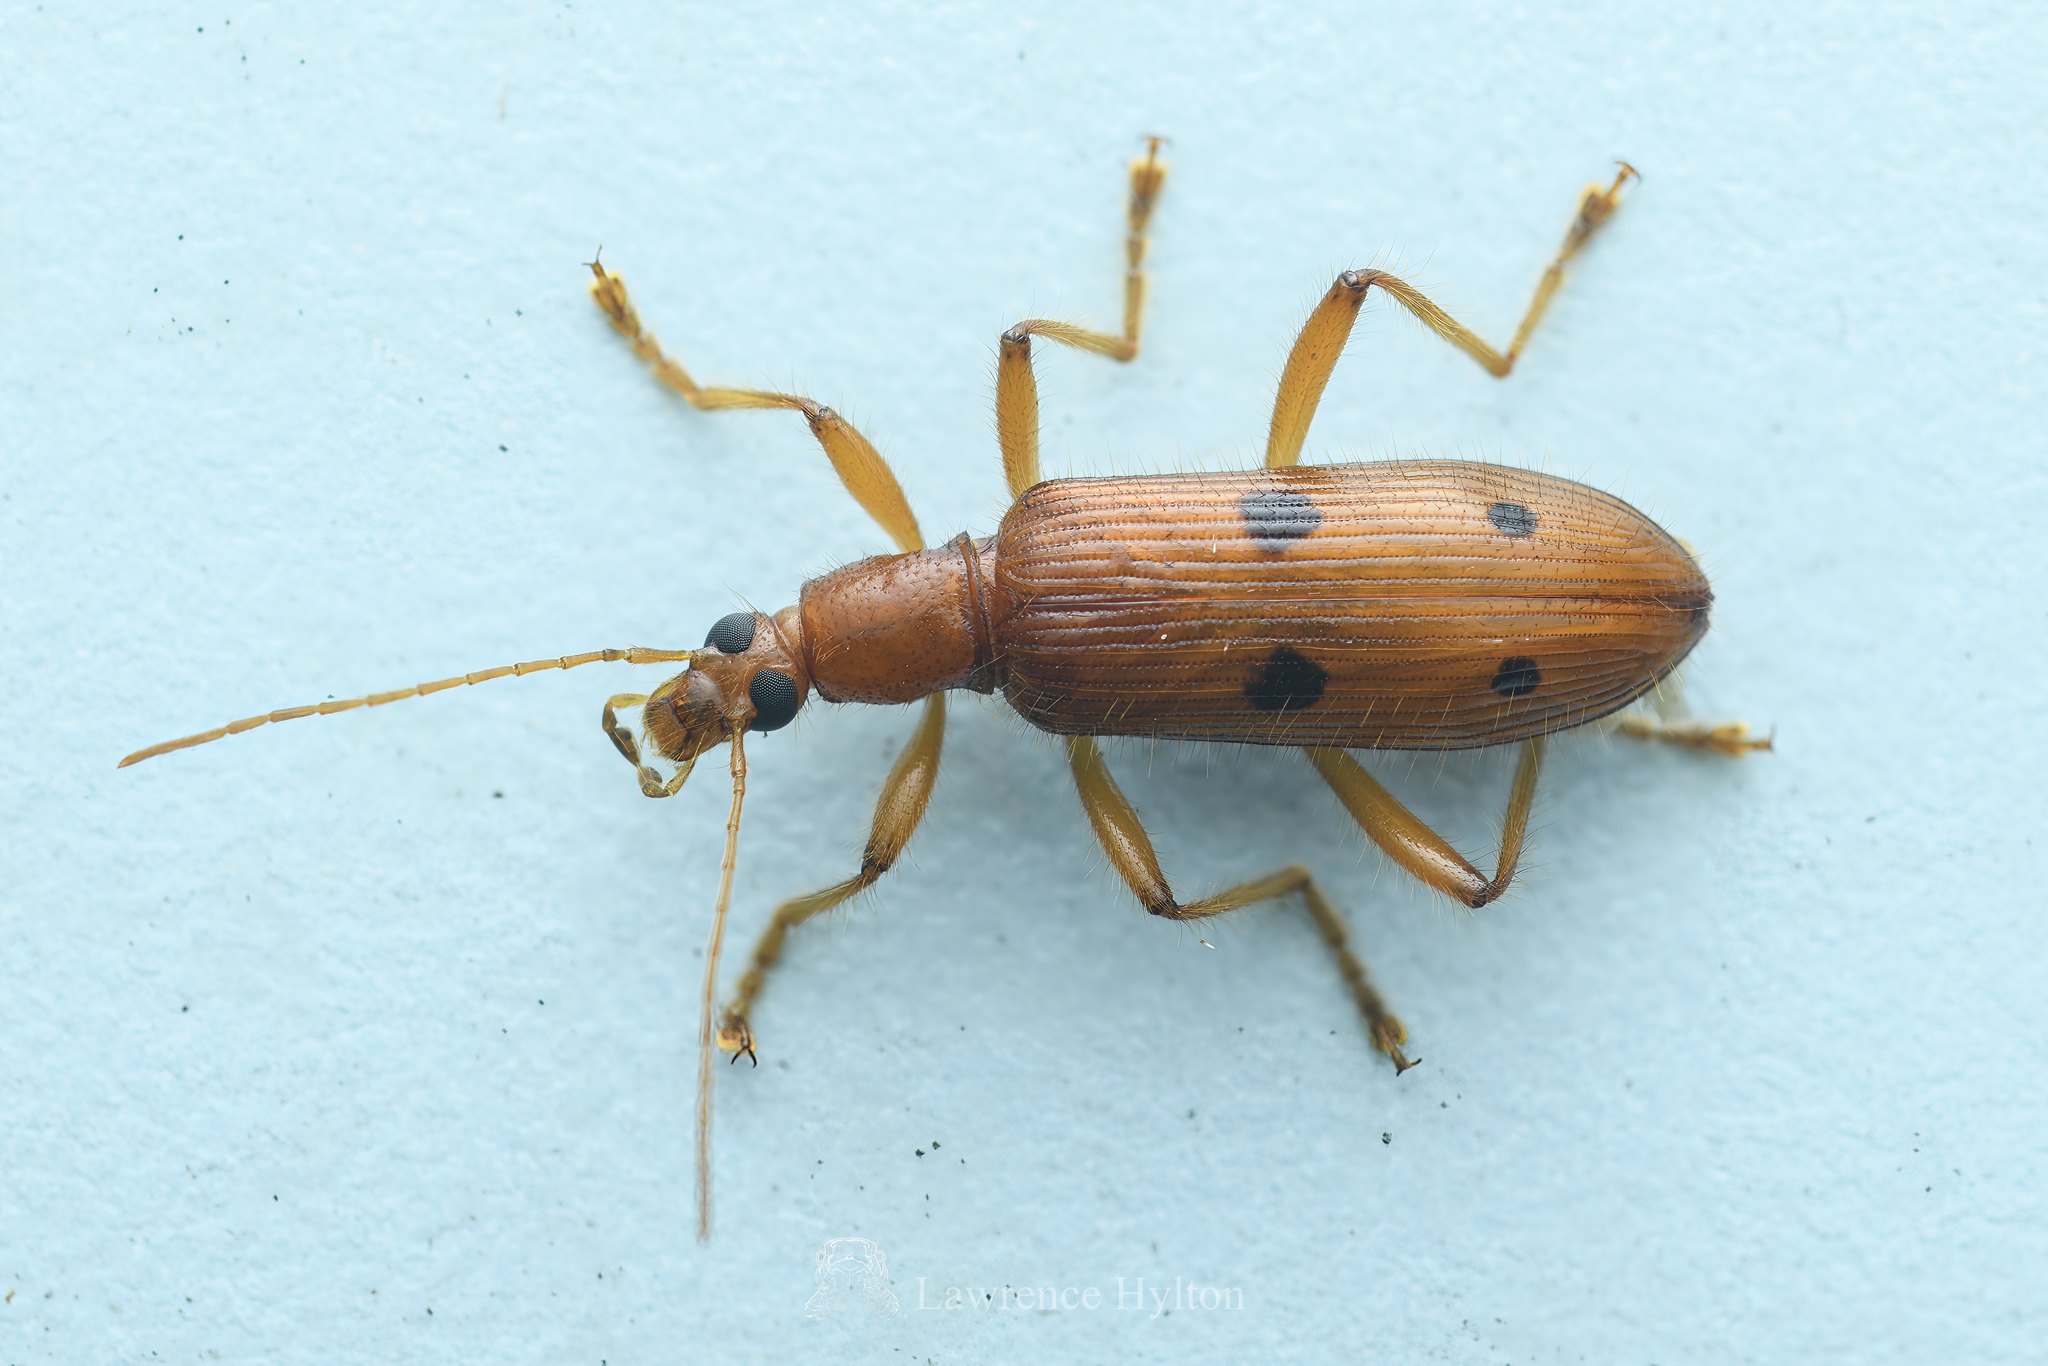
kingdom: Animalia
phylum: Arthropoda
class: Insecta
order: Coleoptera
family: Tenebrionidae
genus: Exostira
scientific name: Exostira
